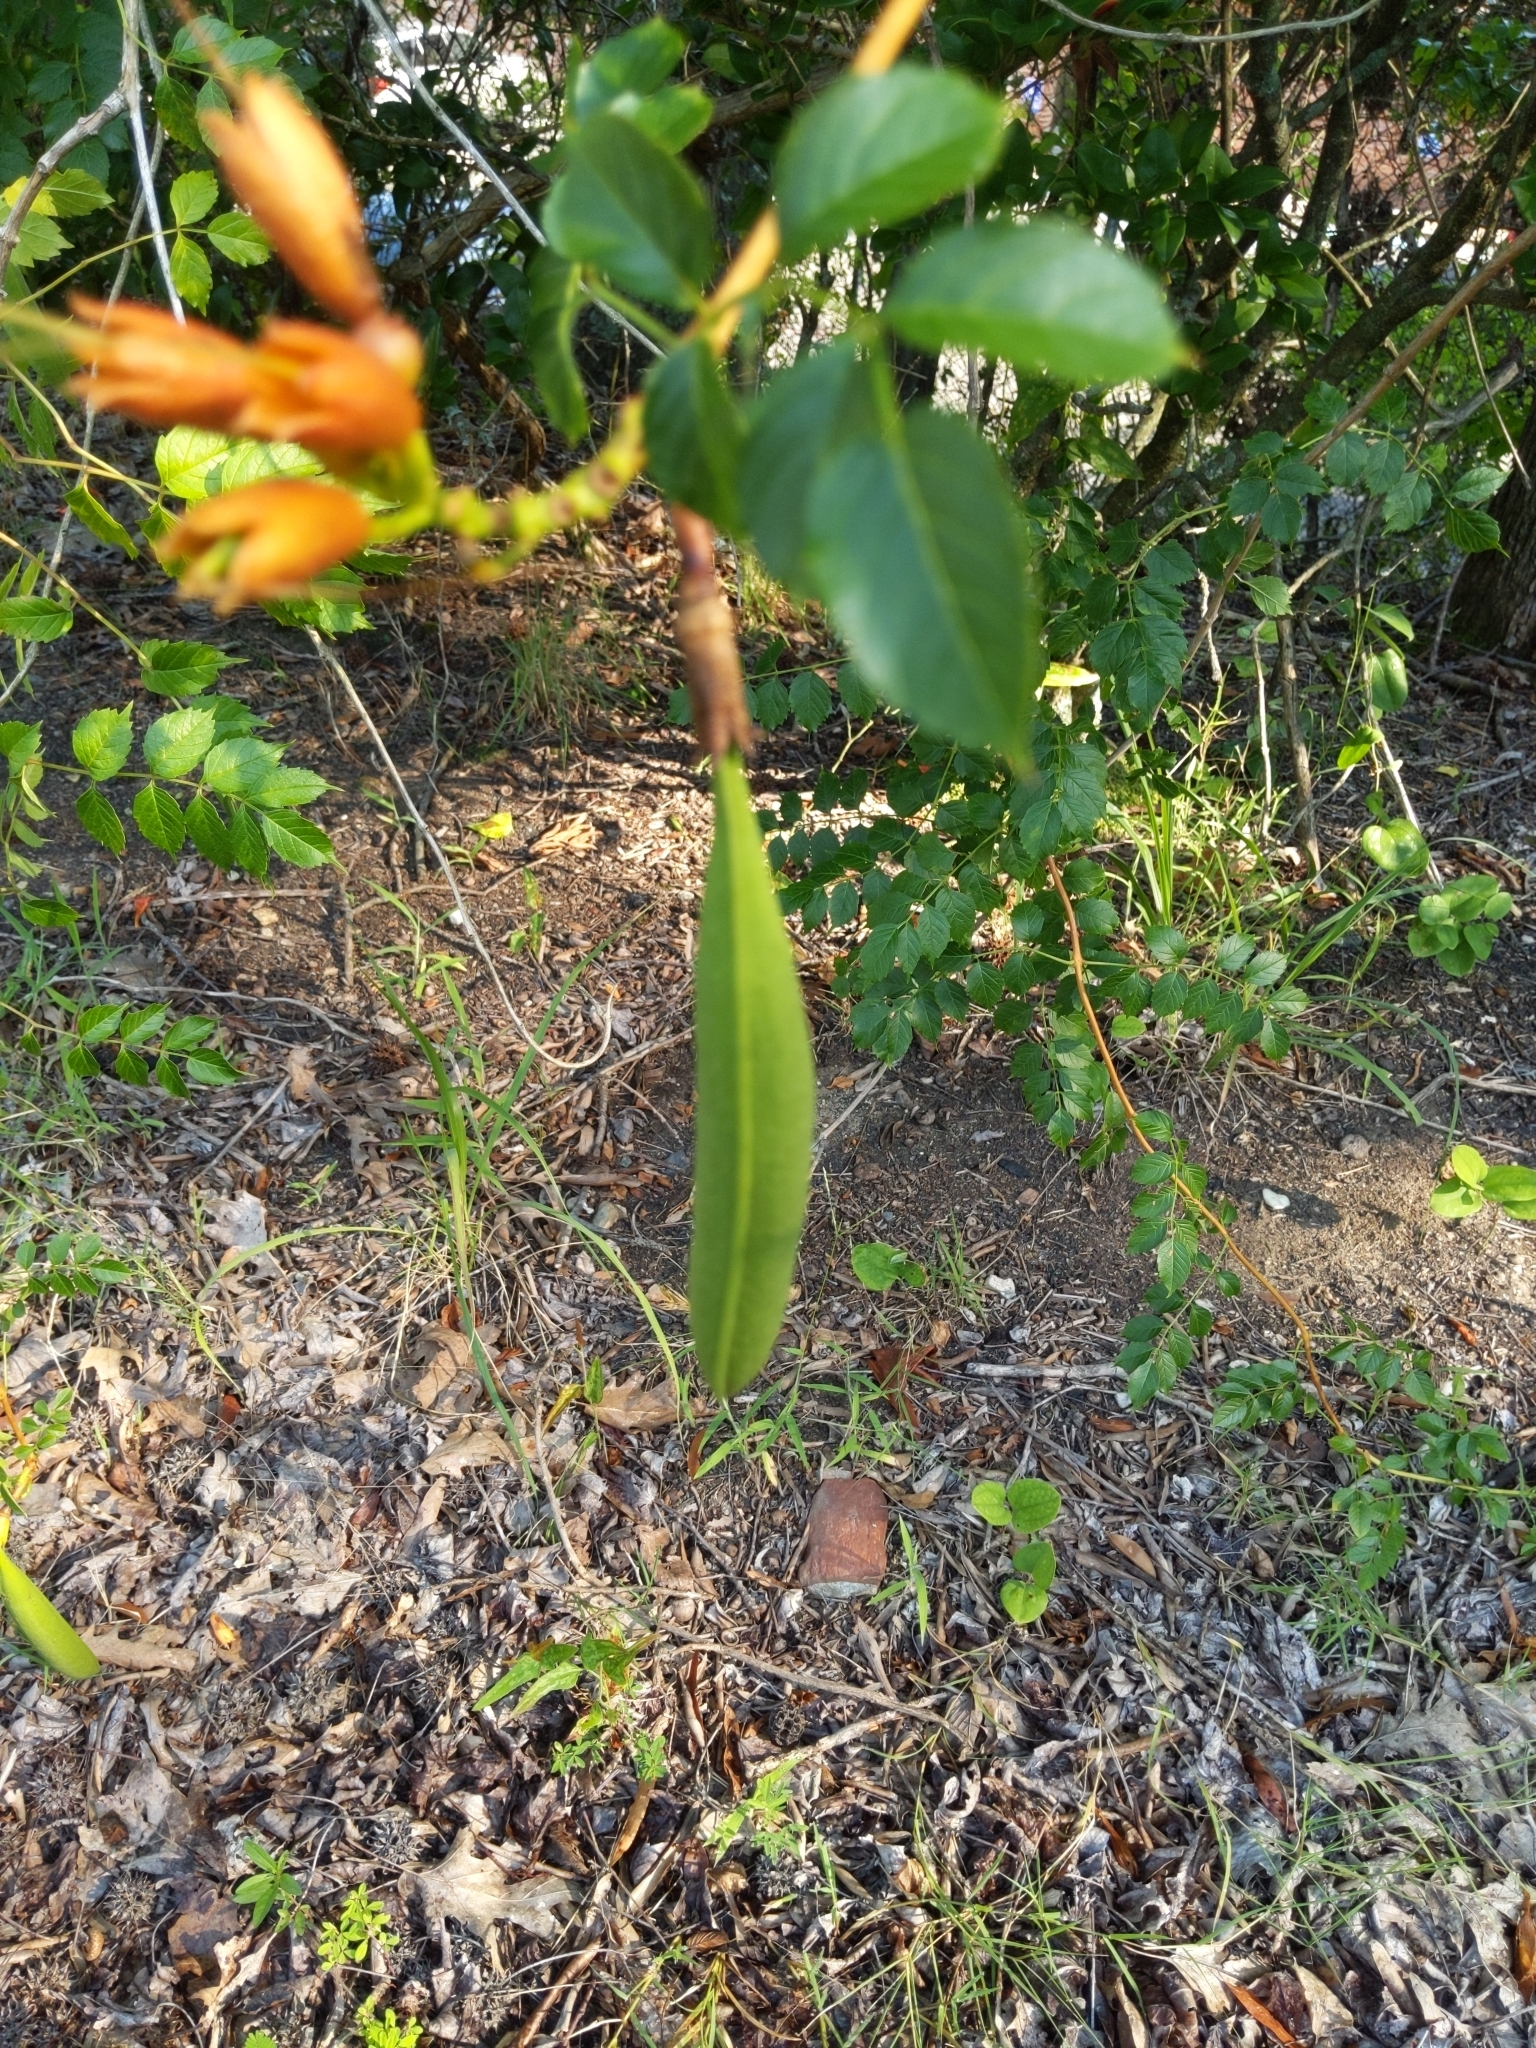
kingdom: Plantae
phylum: Tracheophyta
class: Magnoliopsida
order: Lamiales
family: Bignoniaceae
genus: Campsis
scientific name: Campsis radicans
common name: Trumpet-creeper
